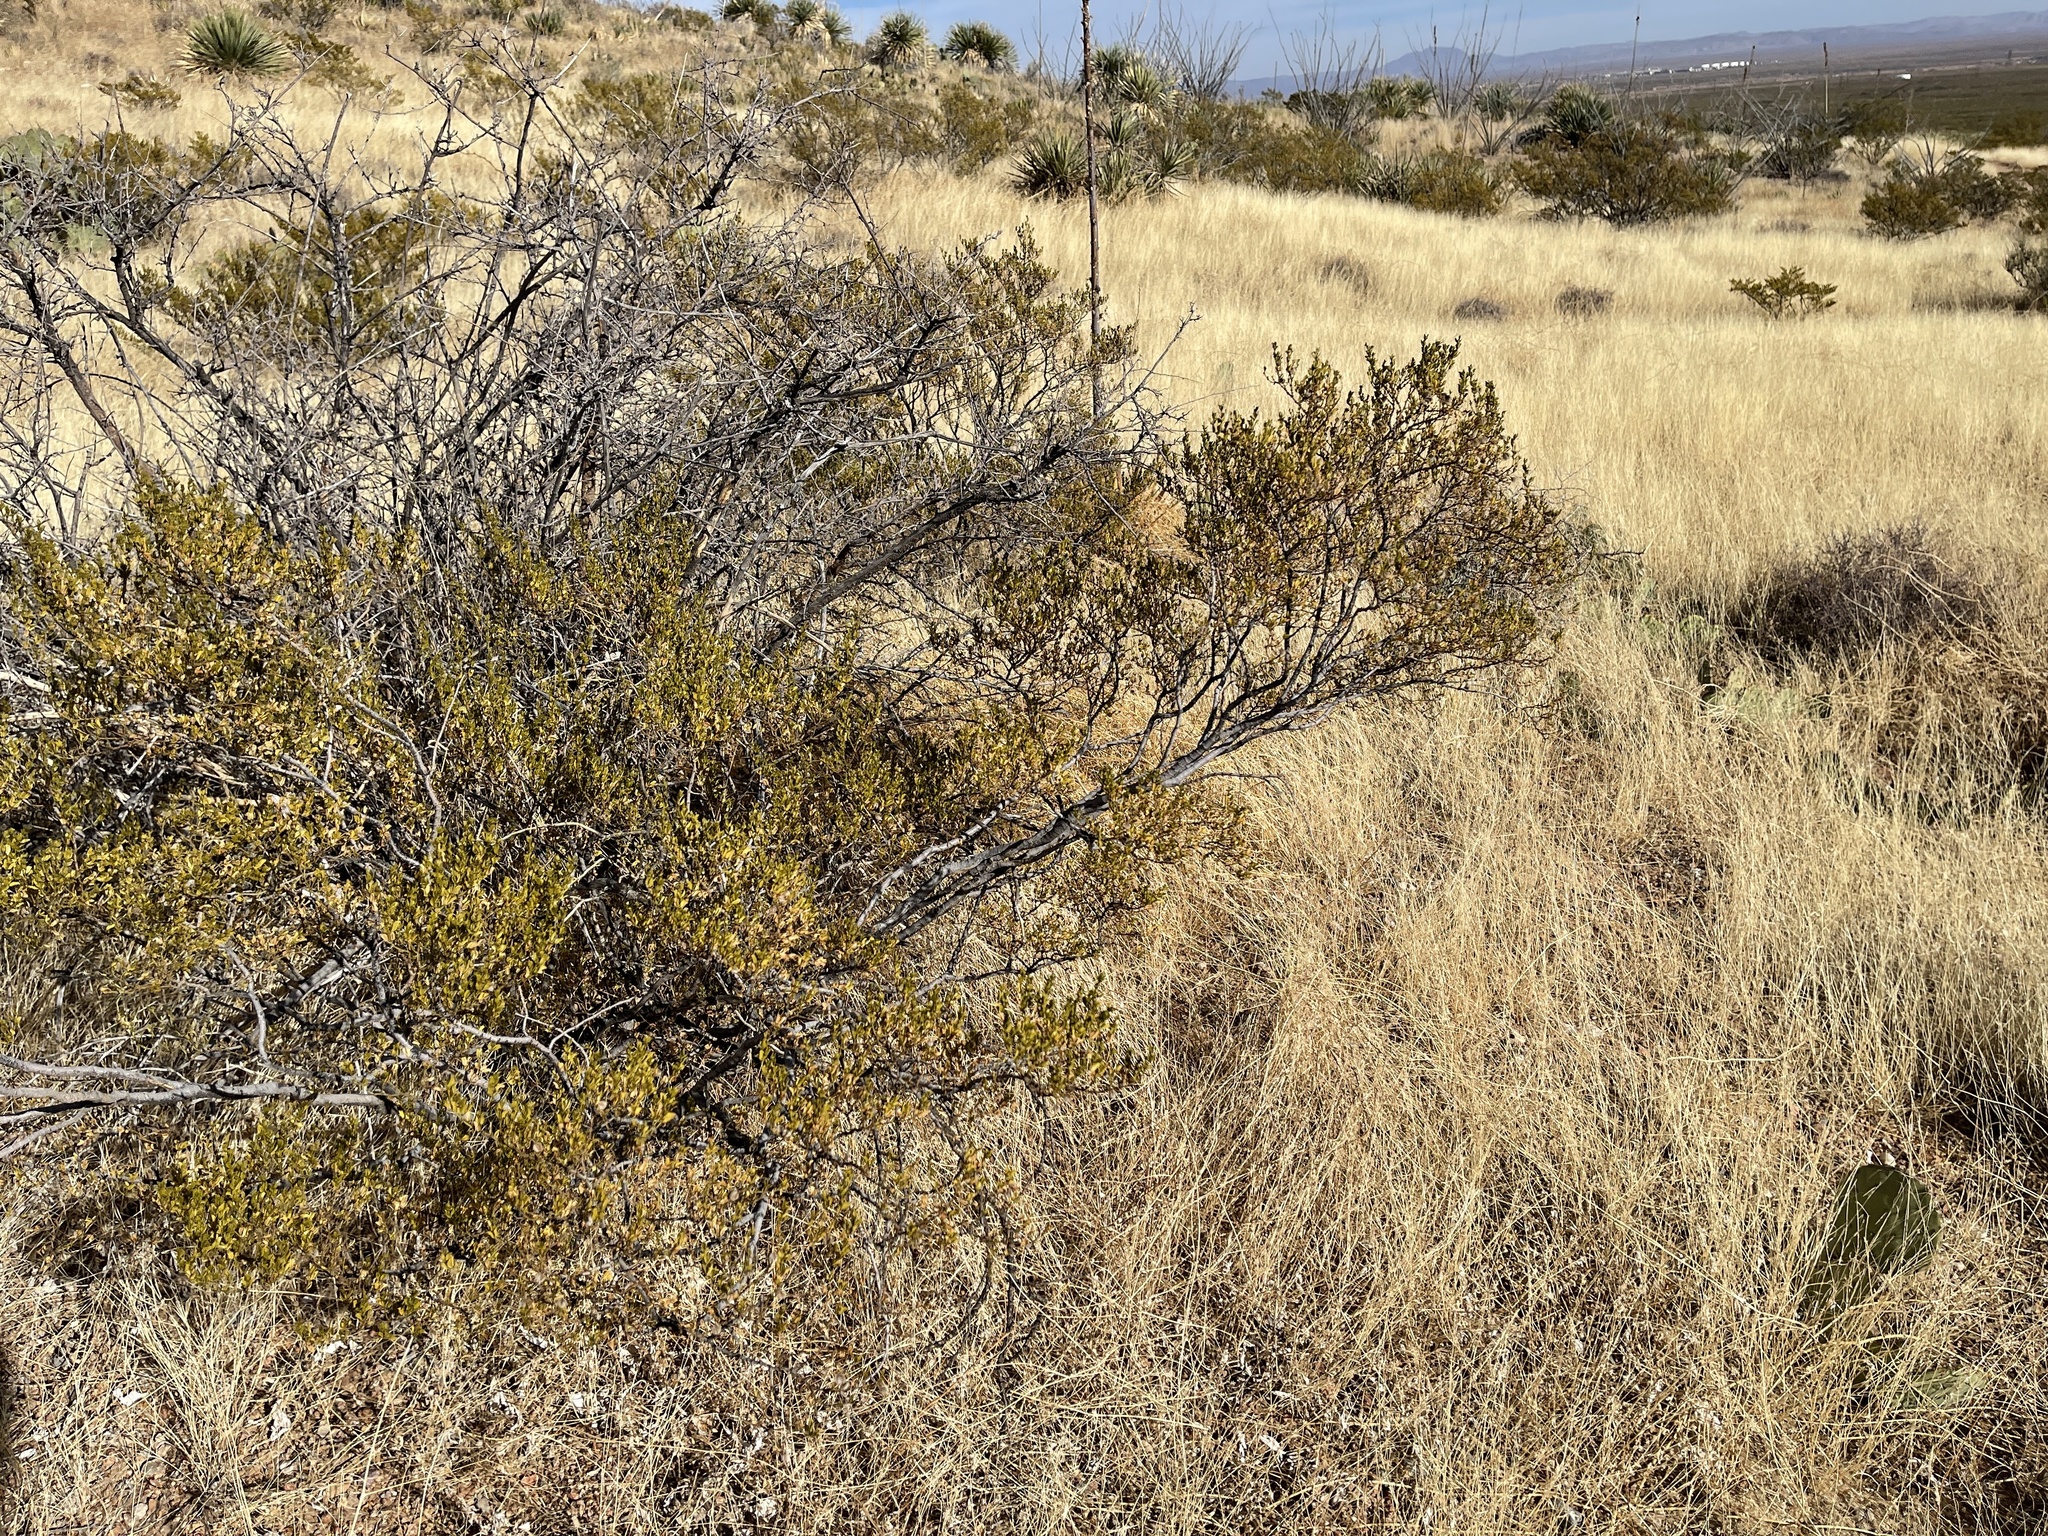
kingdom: Plantae
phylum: Tracheophyta
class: Magnoliopsida
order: Zygophyllales
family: Zygophyllaceae
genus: Larrea
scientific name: Larrea tridentata
